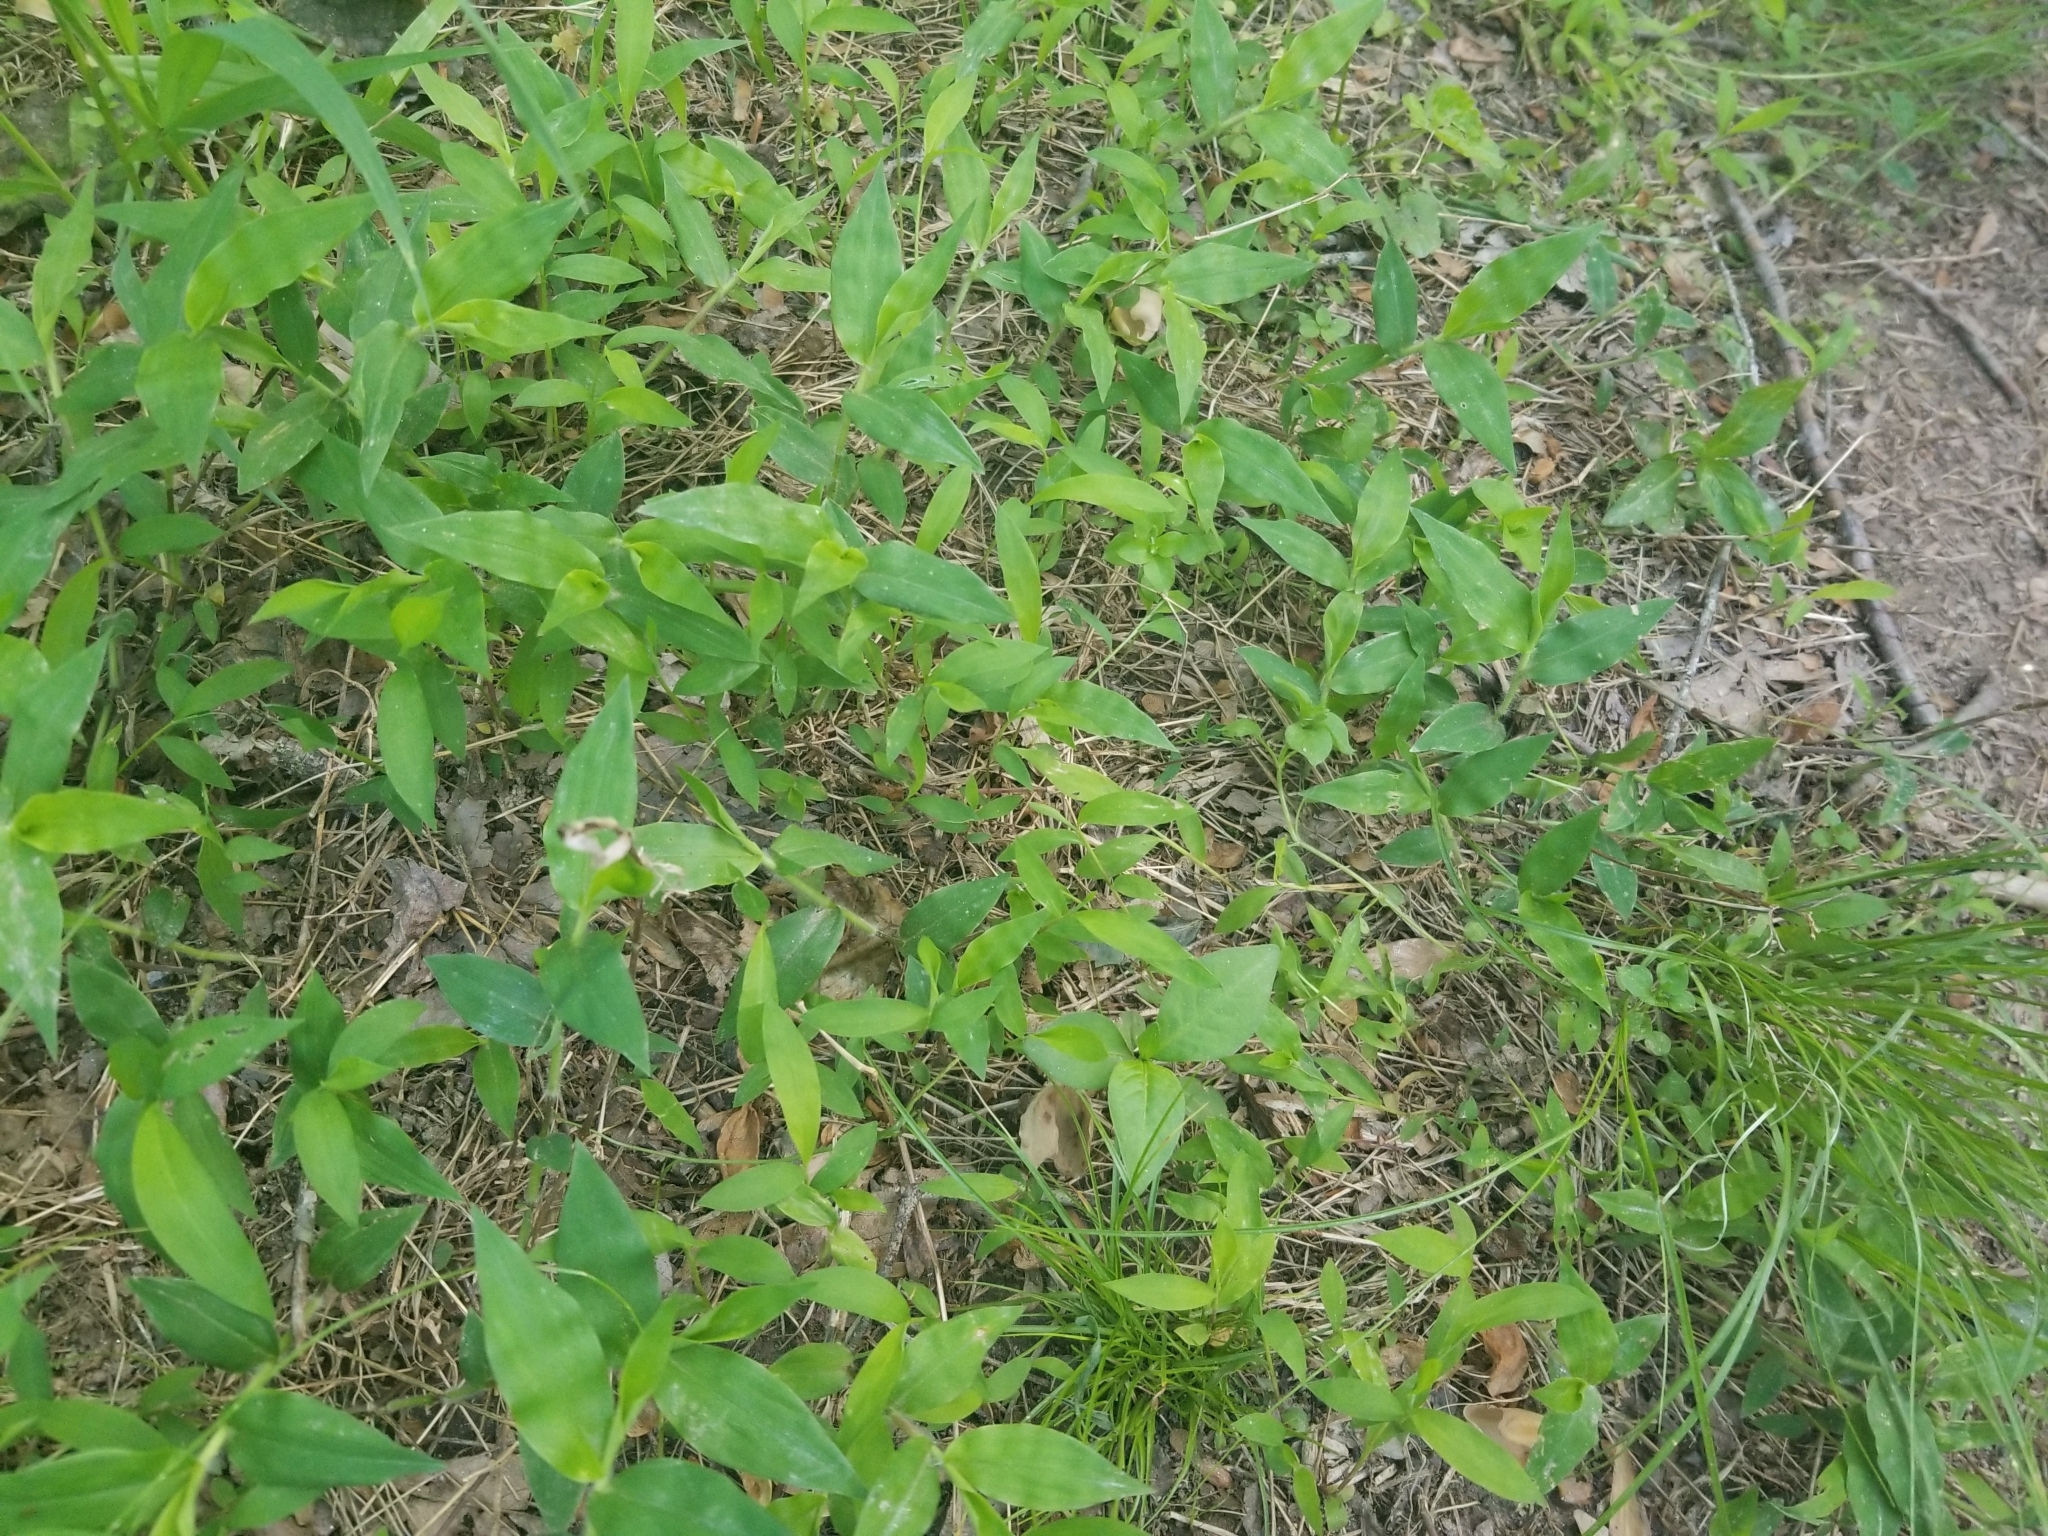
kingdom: Plantae
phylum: Tracheophyta
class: Liliopsida
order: Poales
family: Poaceae
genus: Oplismenus
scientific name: Oplismenus undulatifolius
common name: Wavyleaf basketgrass
